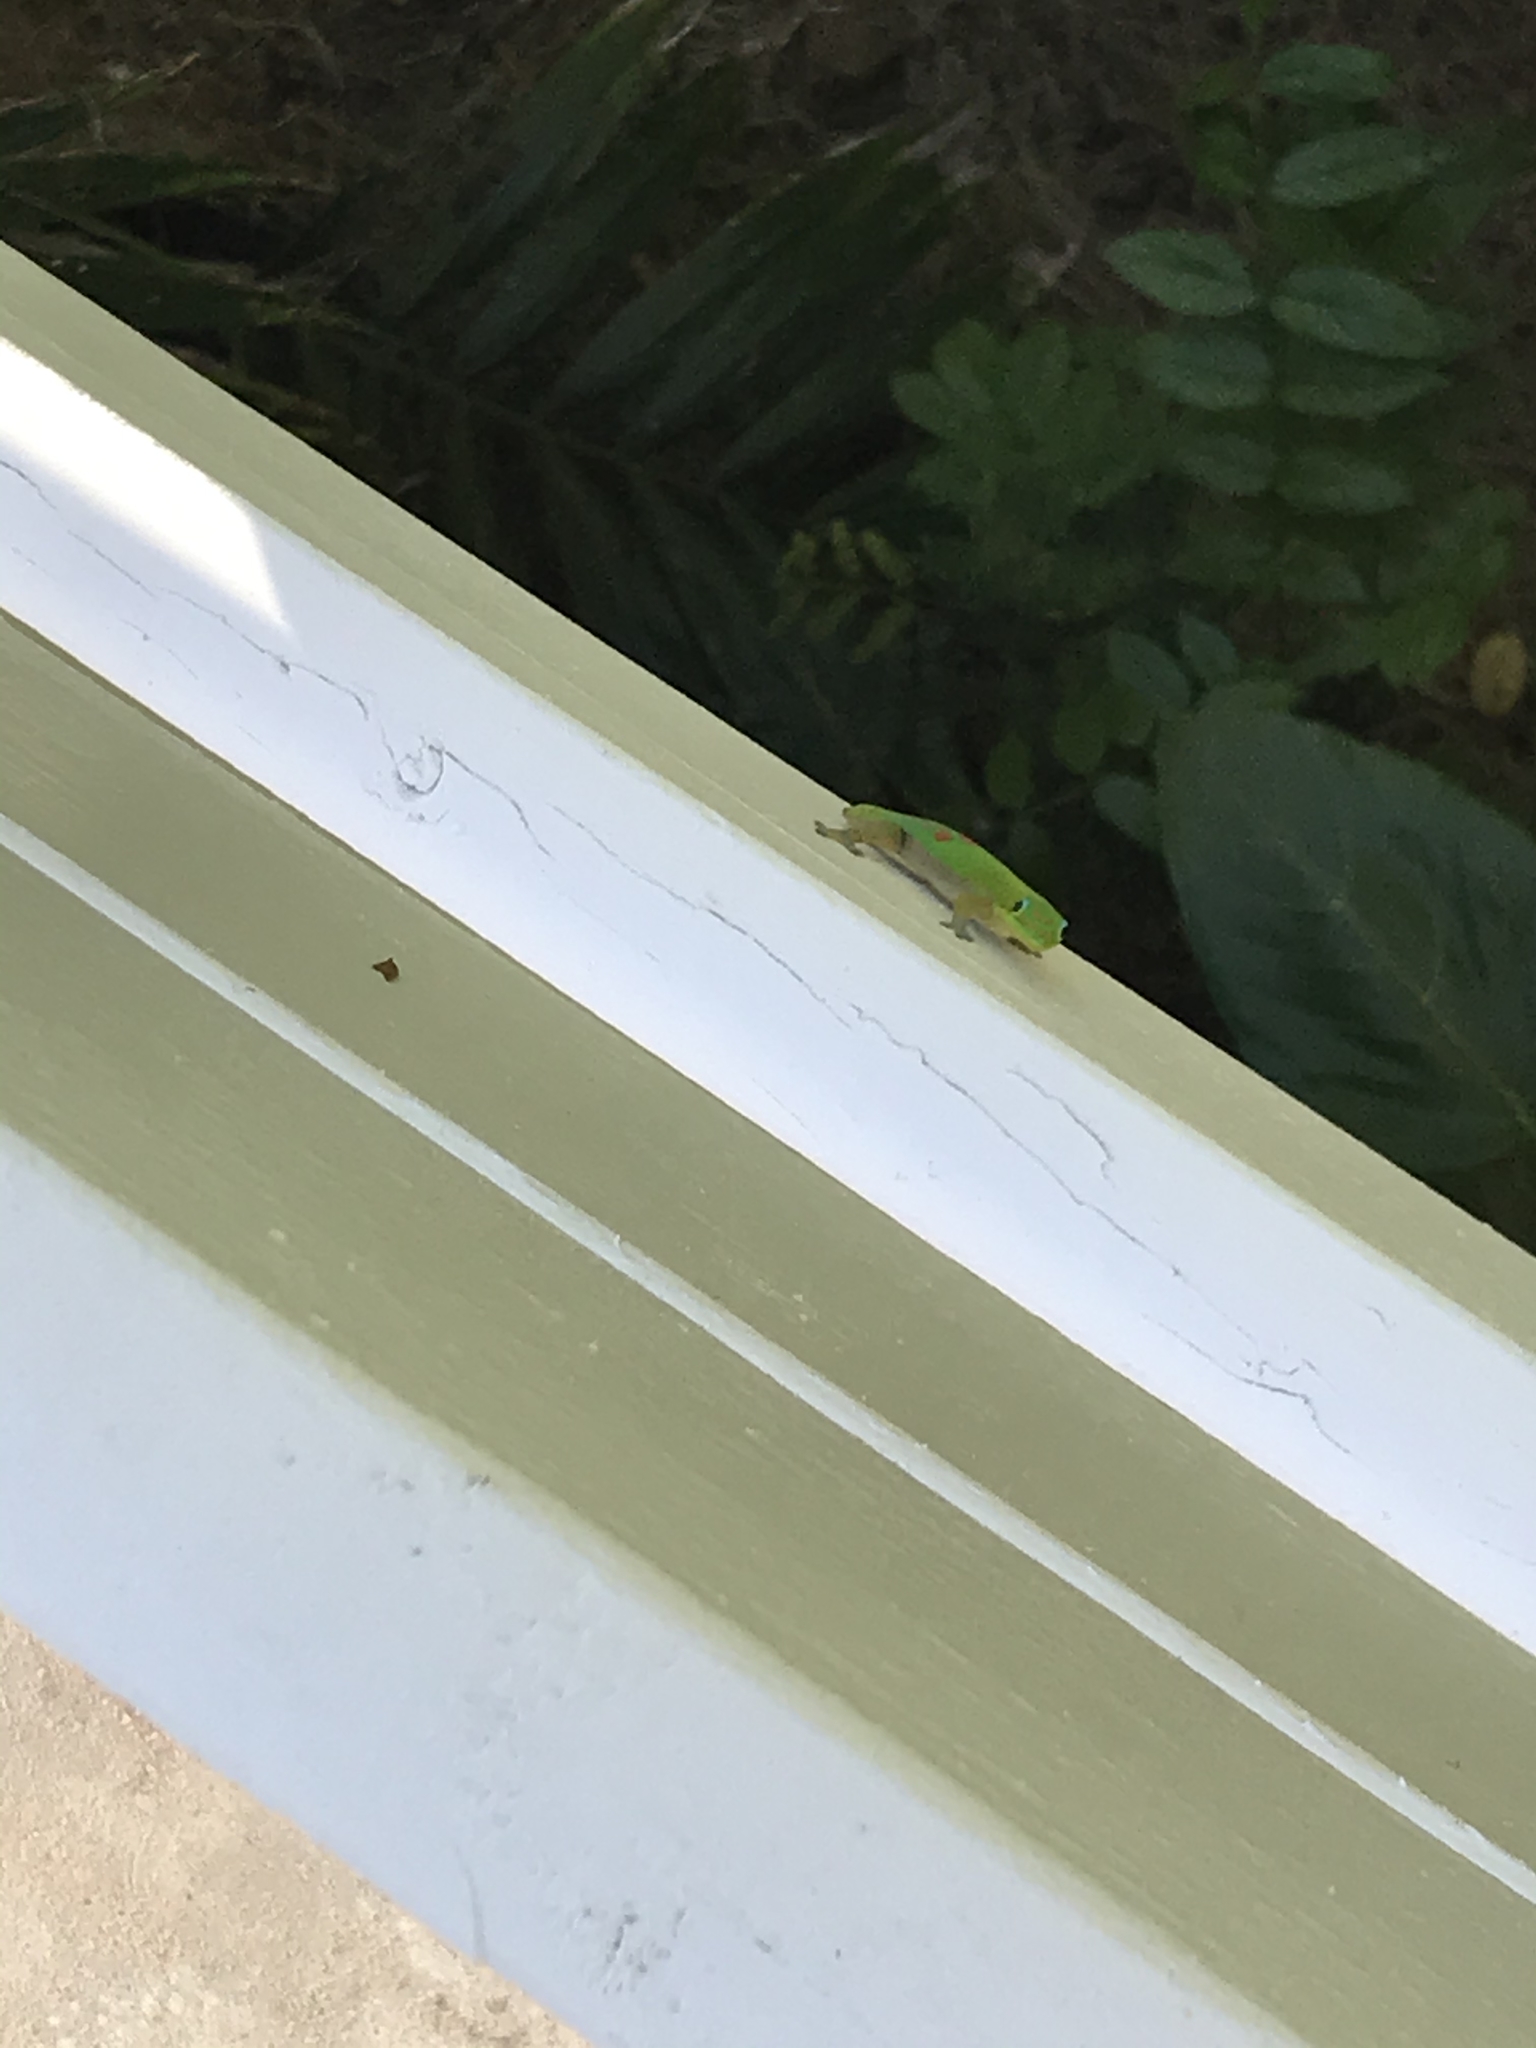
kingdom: Animalia
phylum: Chordata
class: Squamata
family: Gekkonidae
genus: Phelsuma
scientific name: Phelsuma laticauda
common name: Gold dust day gecko
